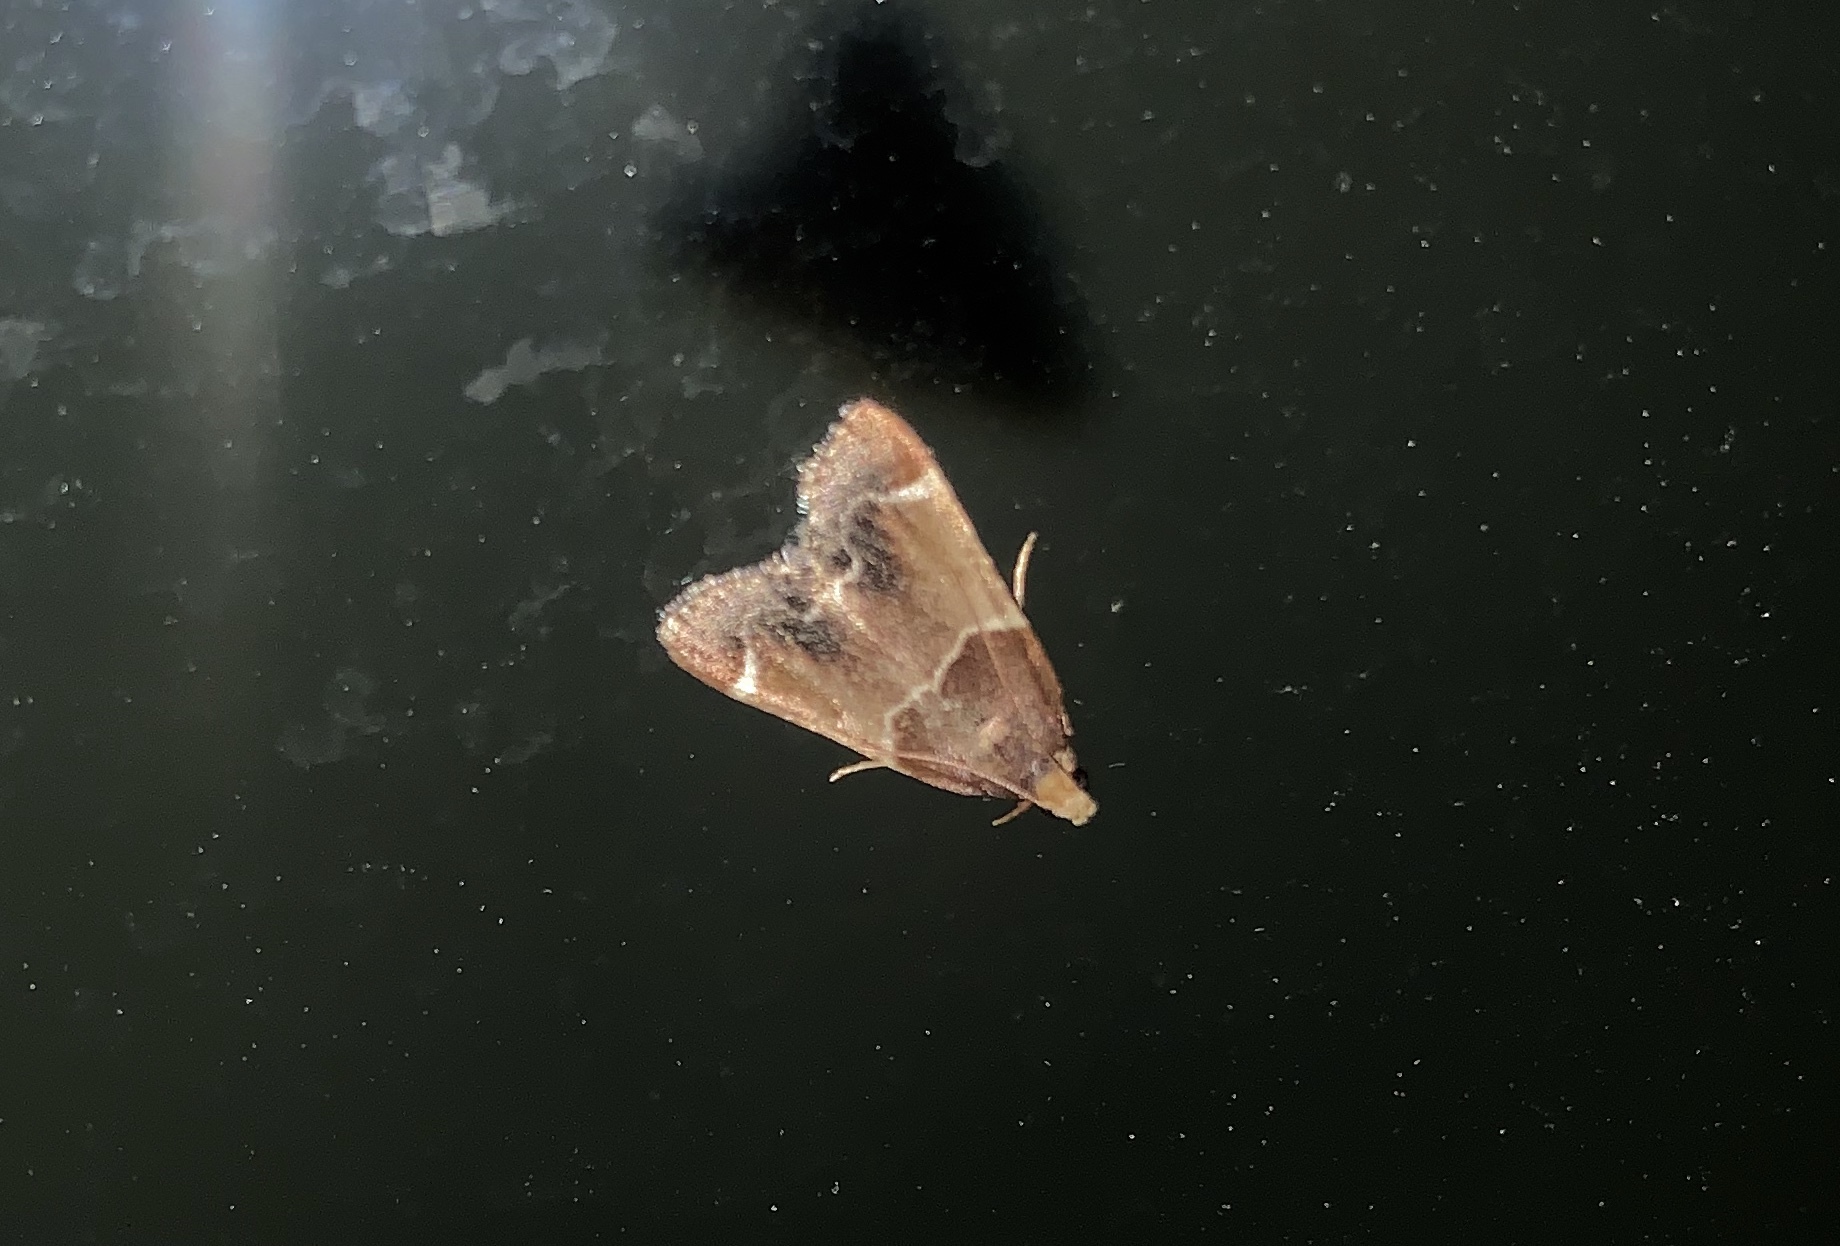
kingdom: Animalia
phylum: Arthropoda
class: Insecta
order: Lepidoptera
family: Pyralidae
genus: Pyralis
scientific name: Pyralis farinalis
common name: Meal moth
